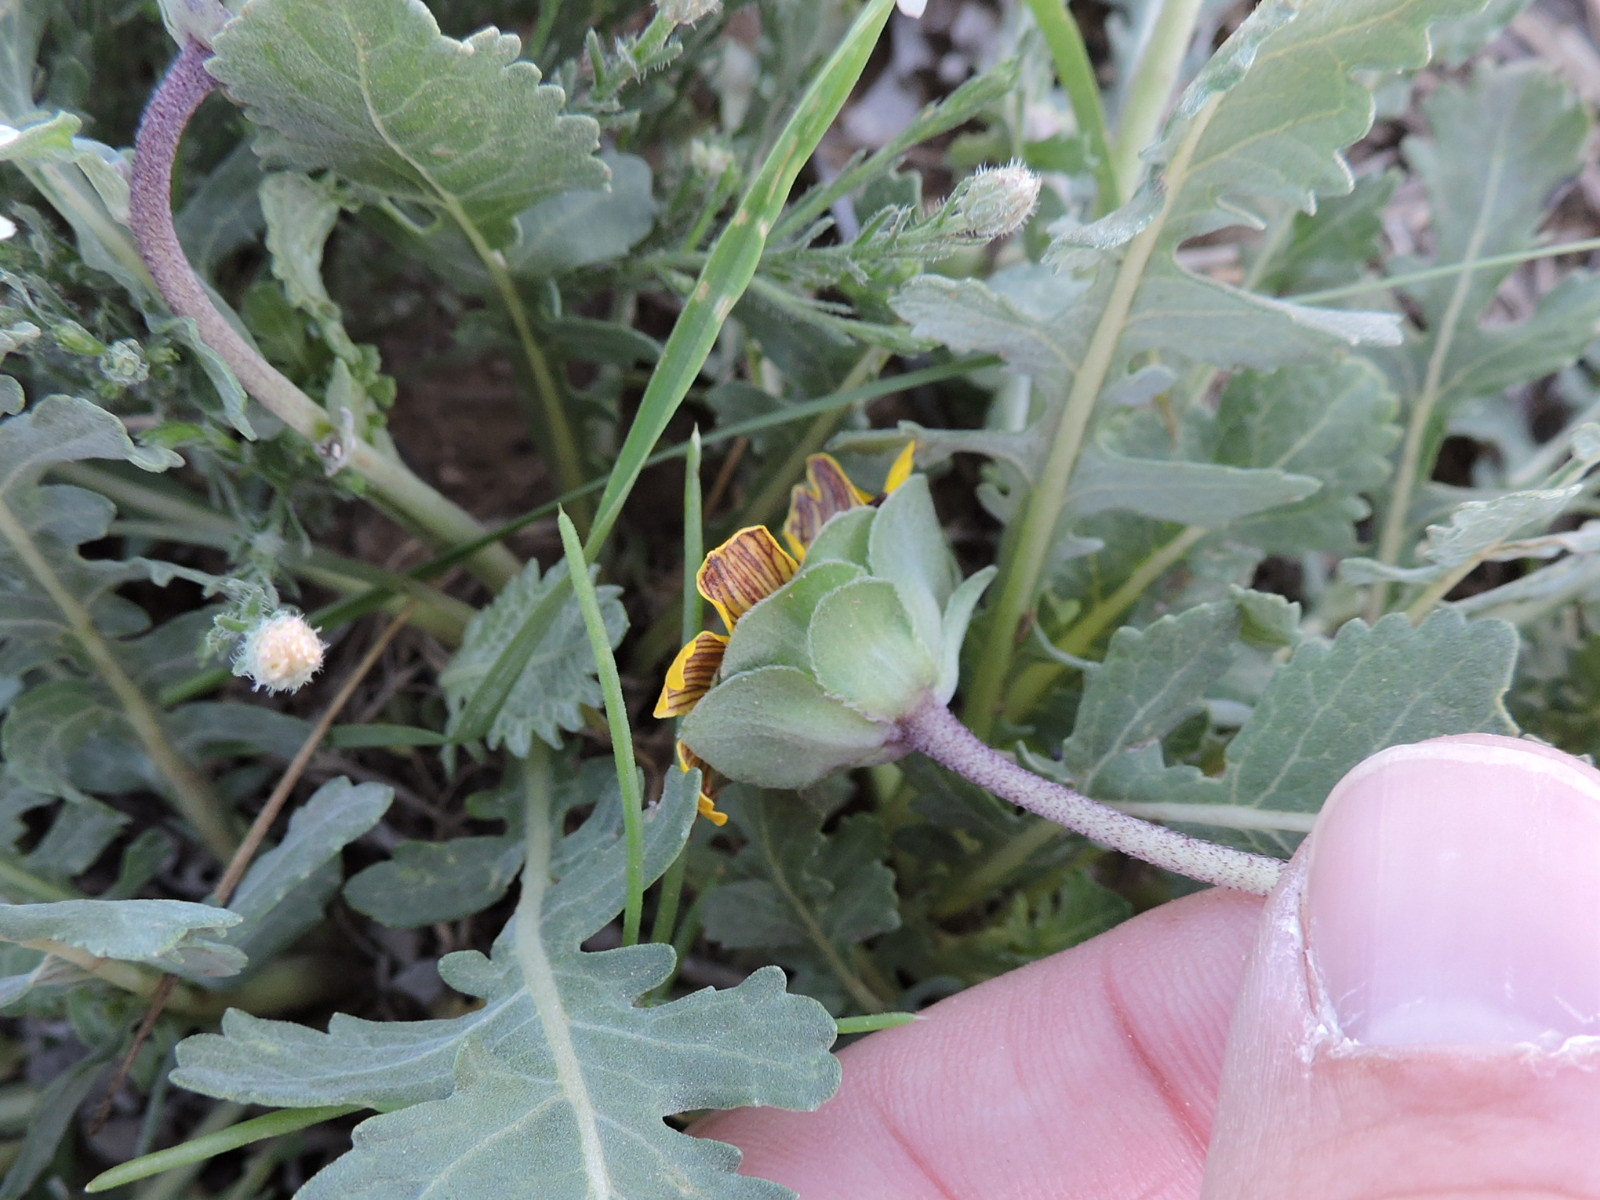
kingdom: Plantae
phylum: Tracheophyta
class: Magnoliopsida
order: Asterales
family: Asteraceae
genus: Berlandiera
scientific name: Berlandiera lyrata
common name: Chocolate-flower
